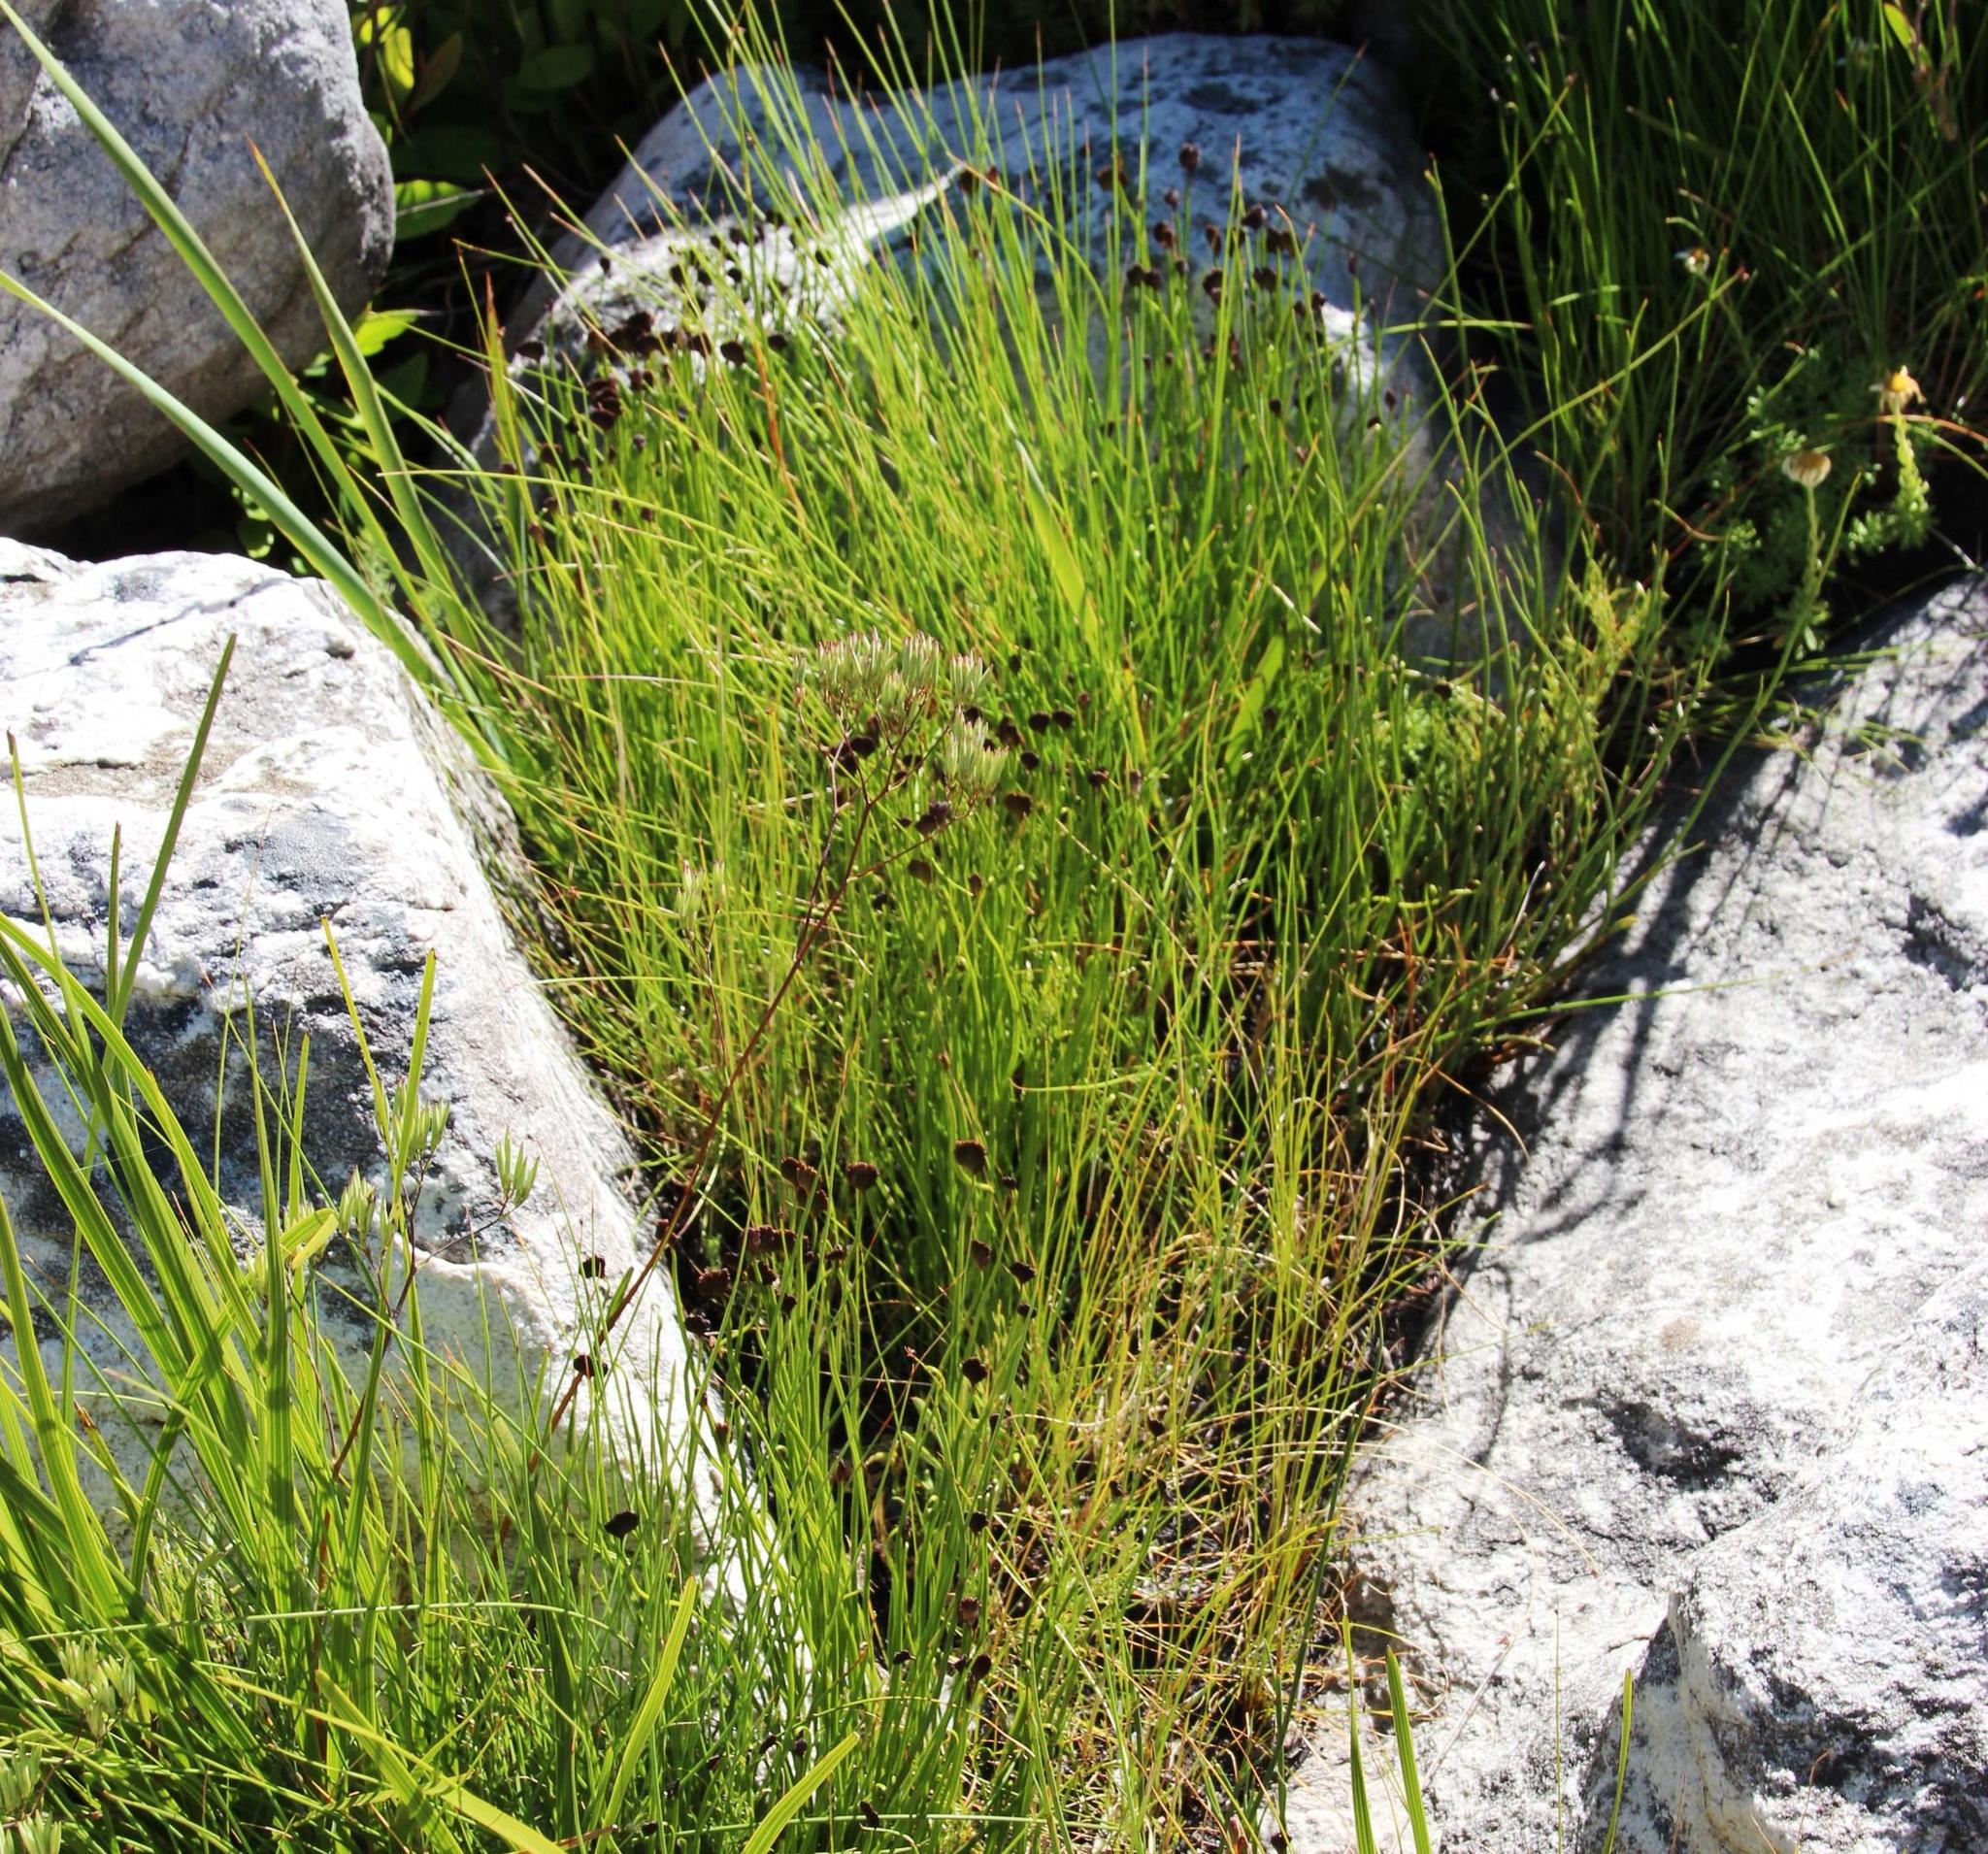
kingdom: Plantae
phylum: Tracheophyta
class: Polypodiopsida
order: Schizaeales
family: Schizaeaceae
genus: Schizaea
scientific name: Schizaea pectinata
